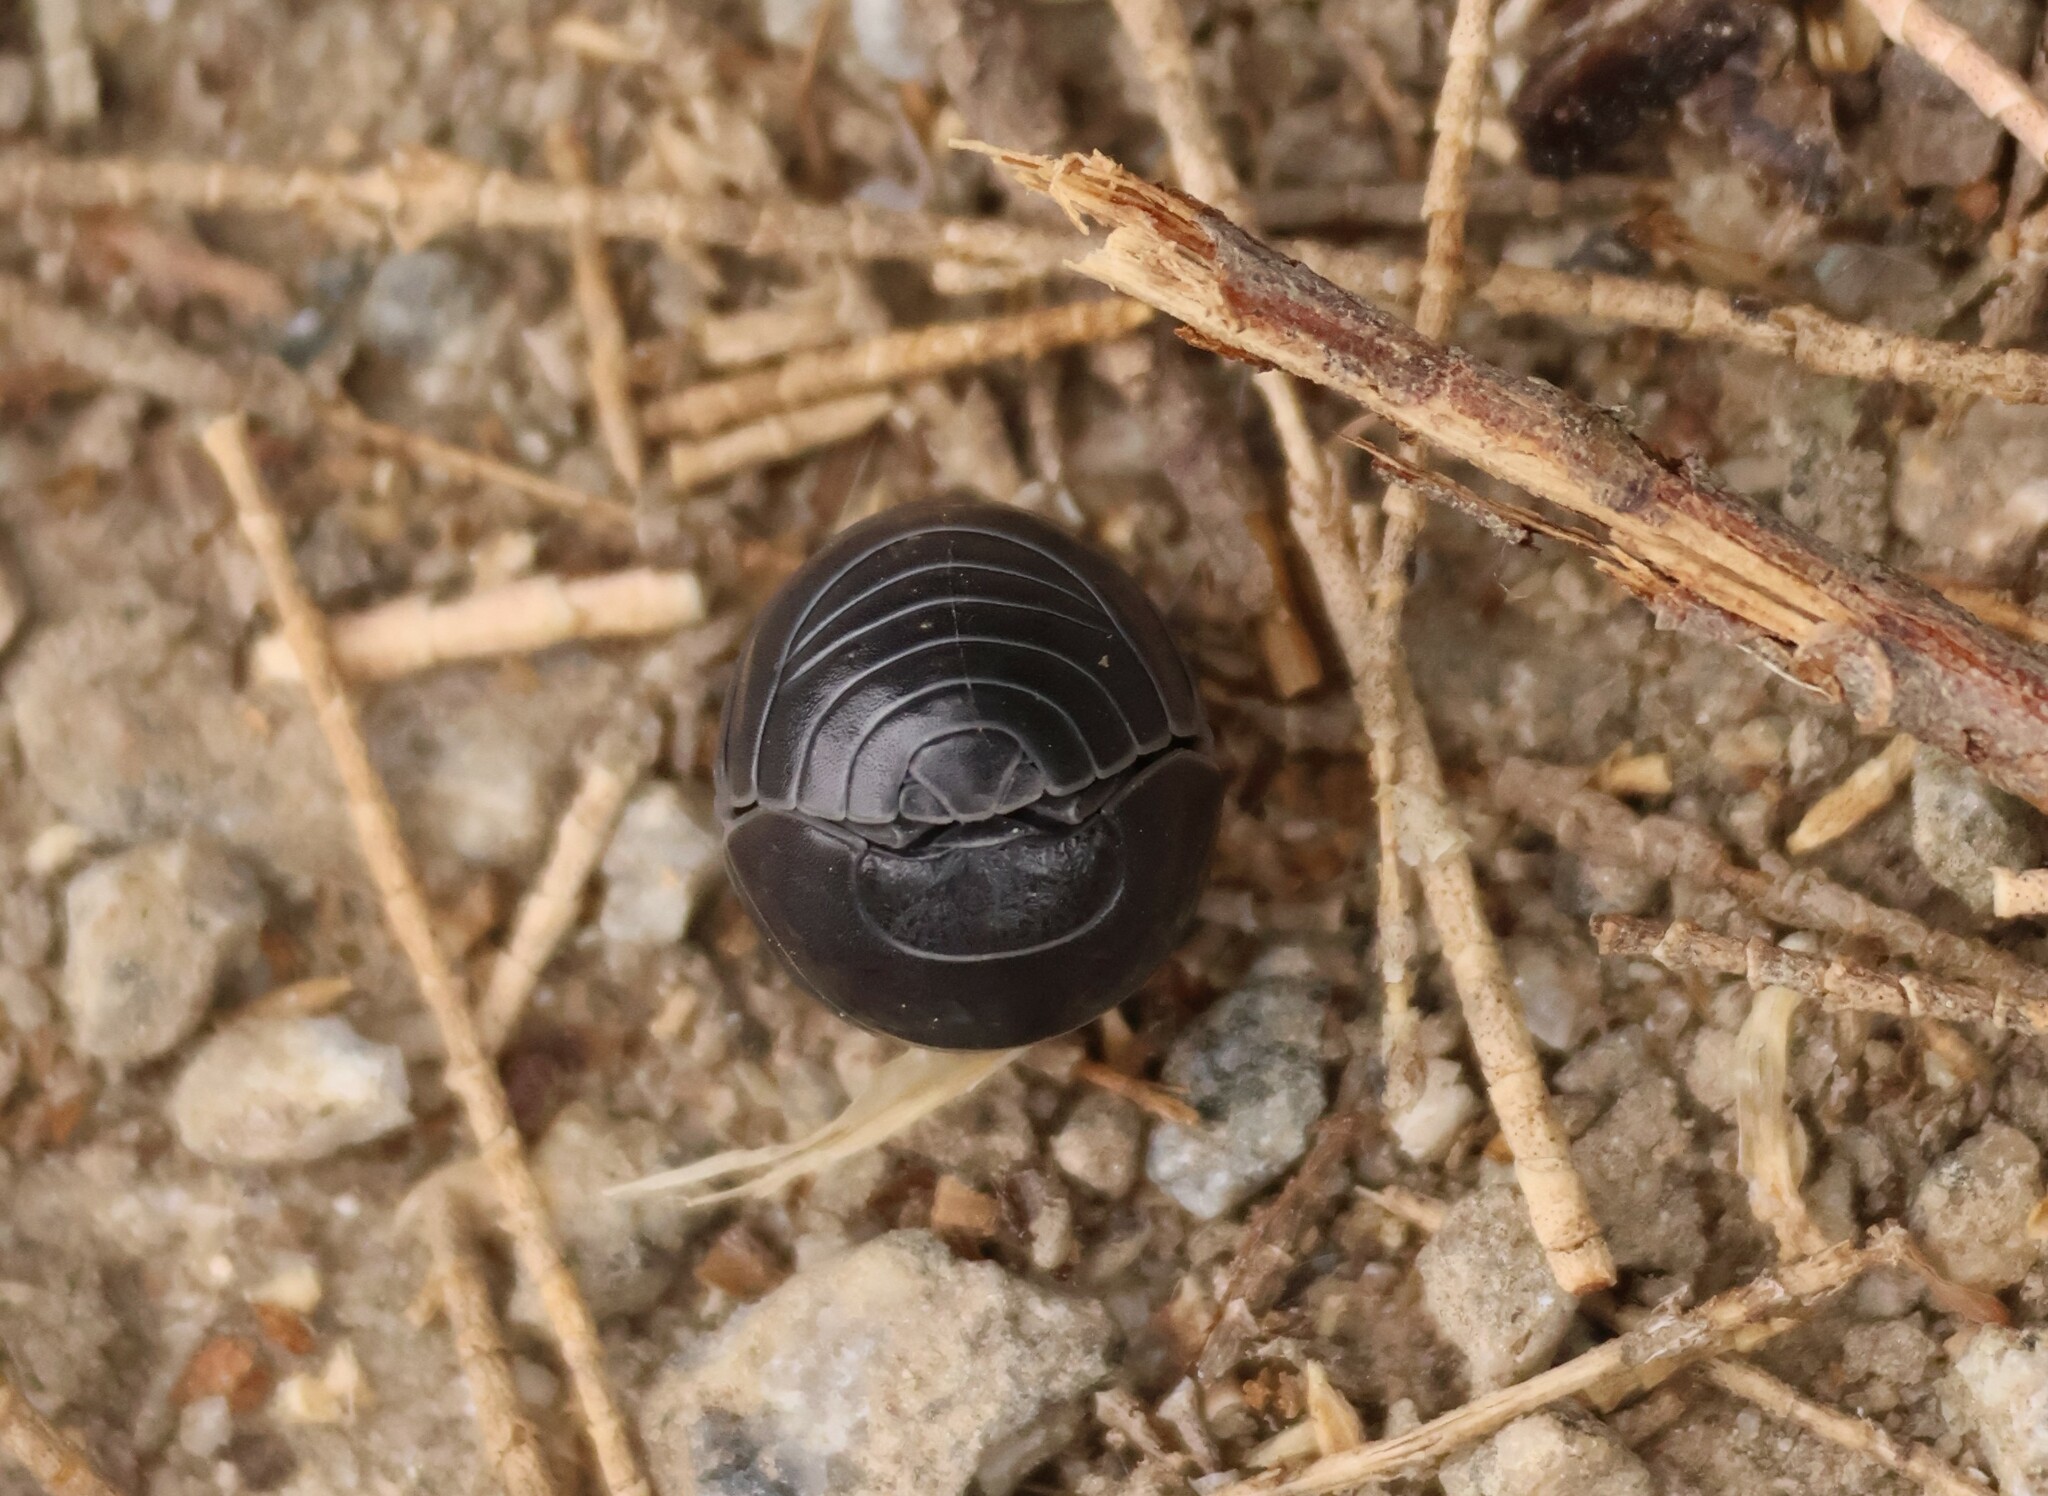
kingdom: Animalia
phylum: Arthropoda
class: Malacostraca
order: Isopoda
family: Armadillidiidae
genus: Armadillidium
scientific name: Armadillidium vulgare
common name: Common pill woodlouse
